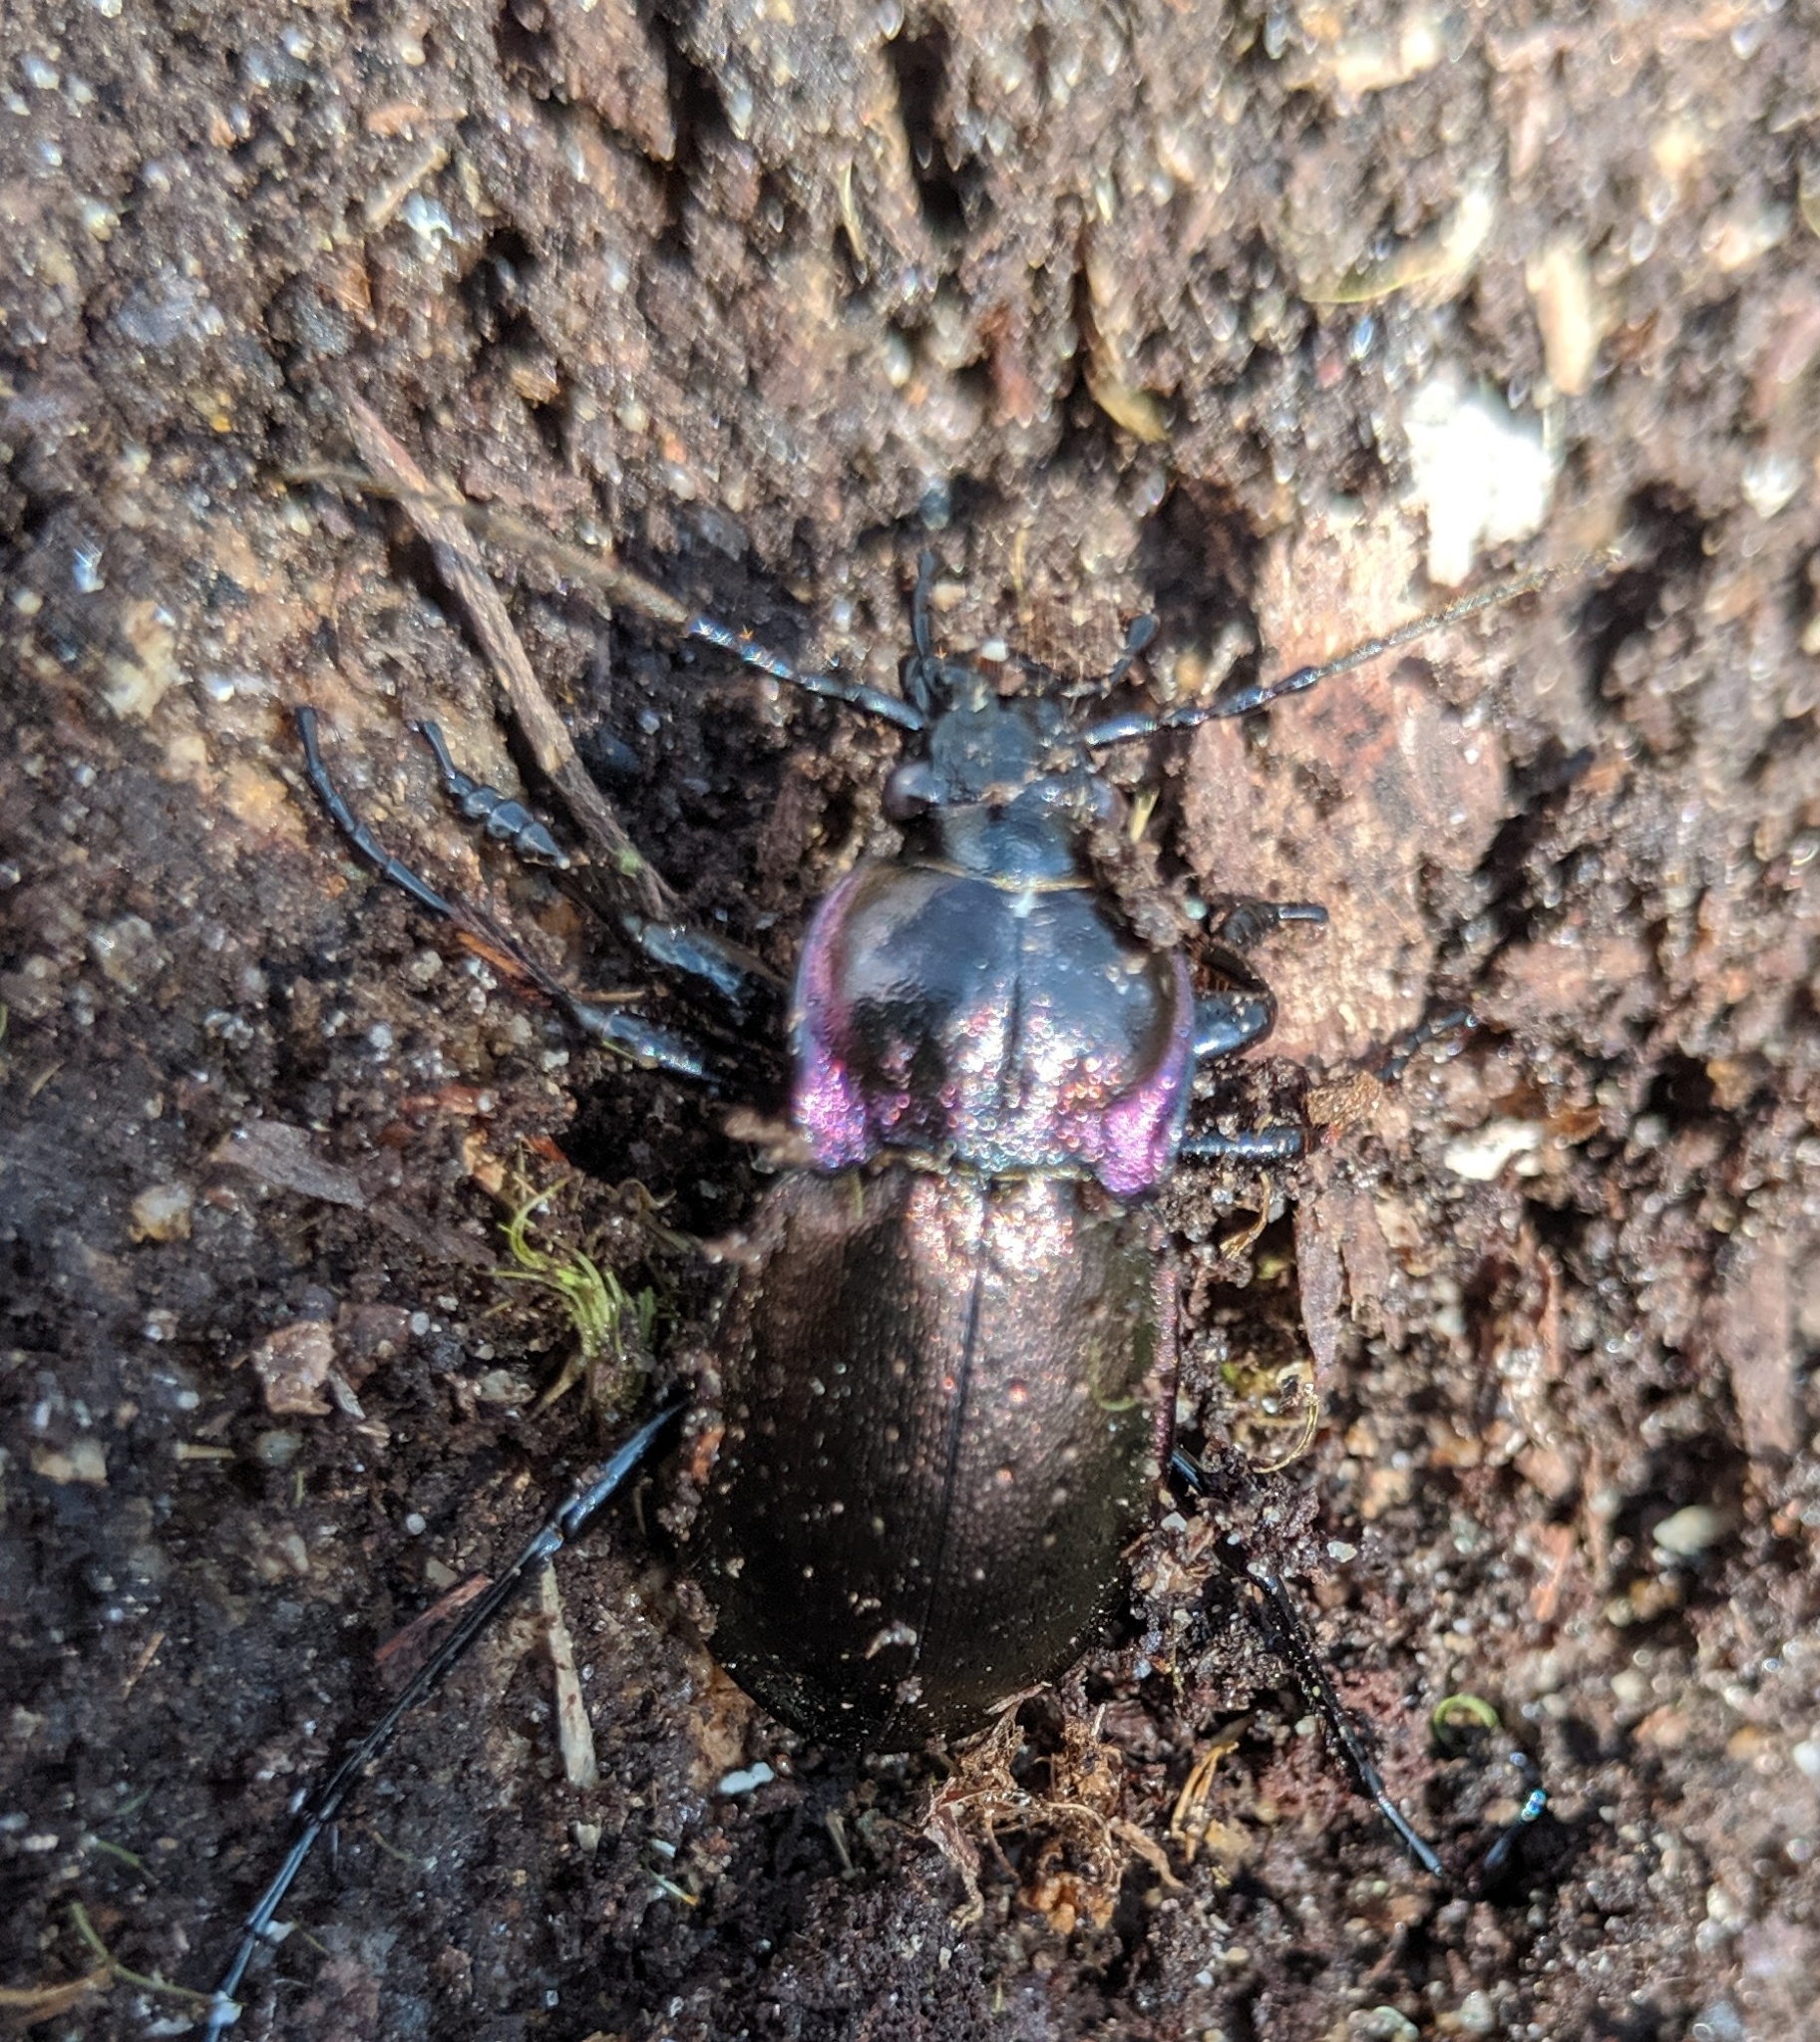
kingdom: Animalia
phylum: Arthropoda
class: Insecta
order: Coleoptera
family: Carabidae
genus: Carabus
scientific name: Carabus nemoralis
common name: European ground beetle
